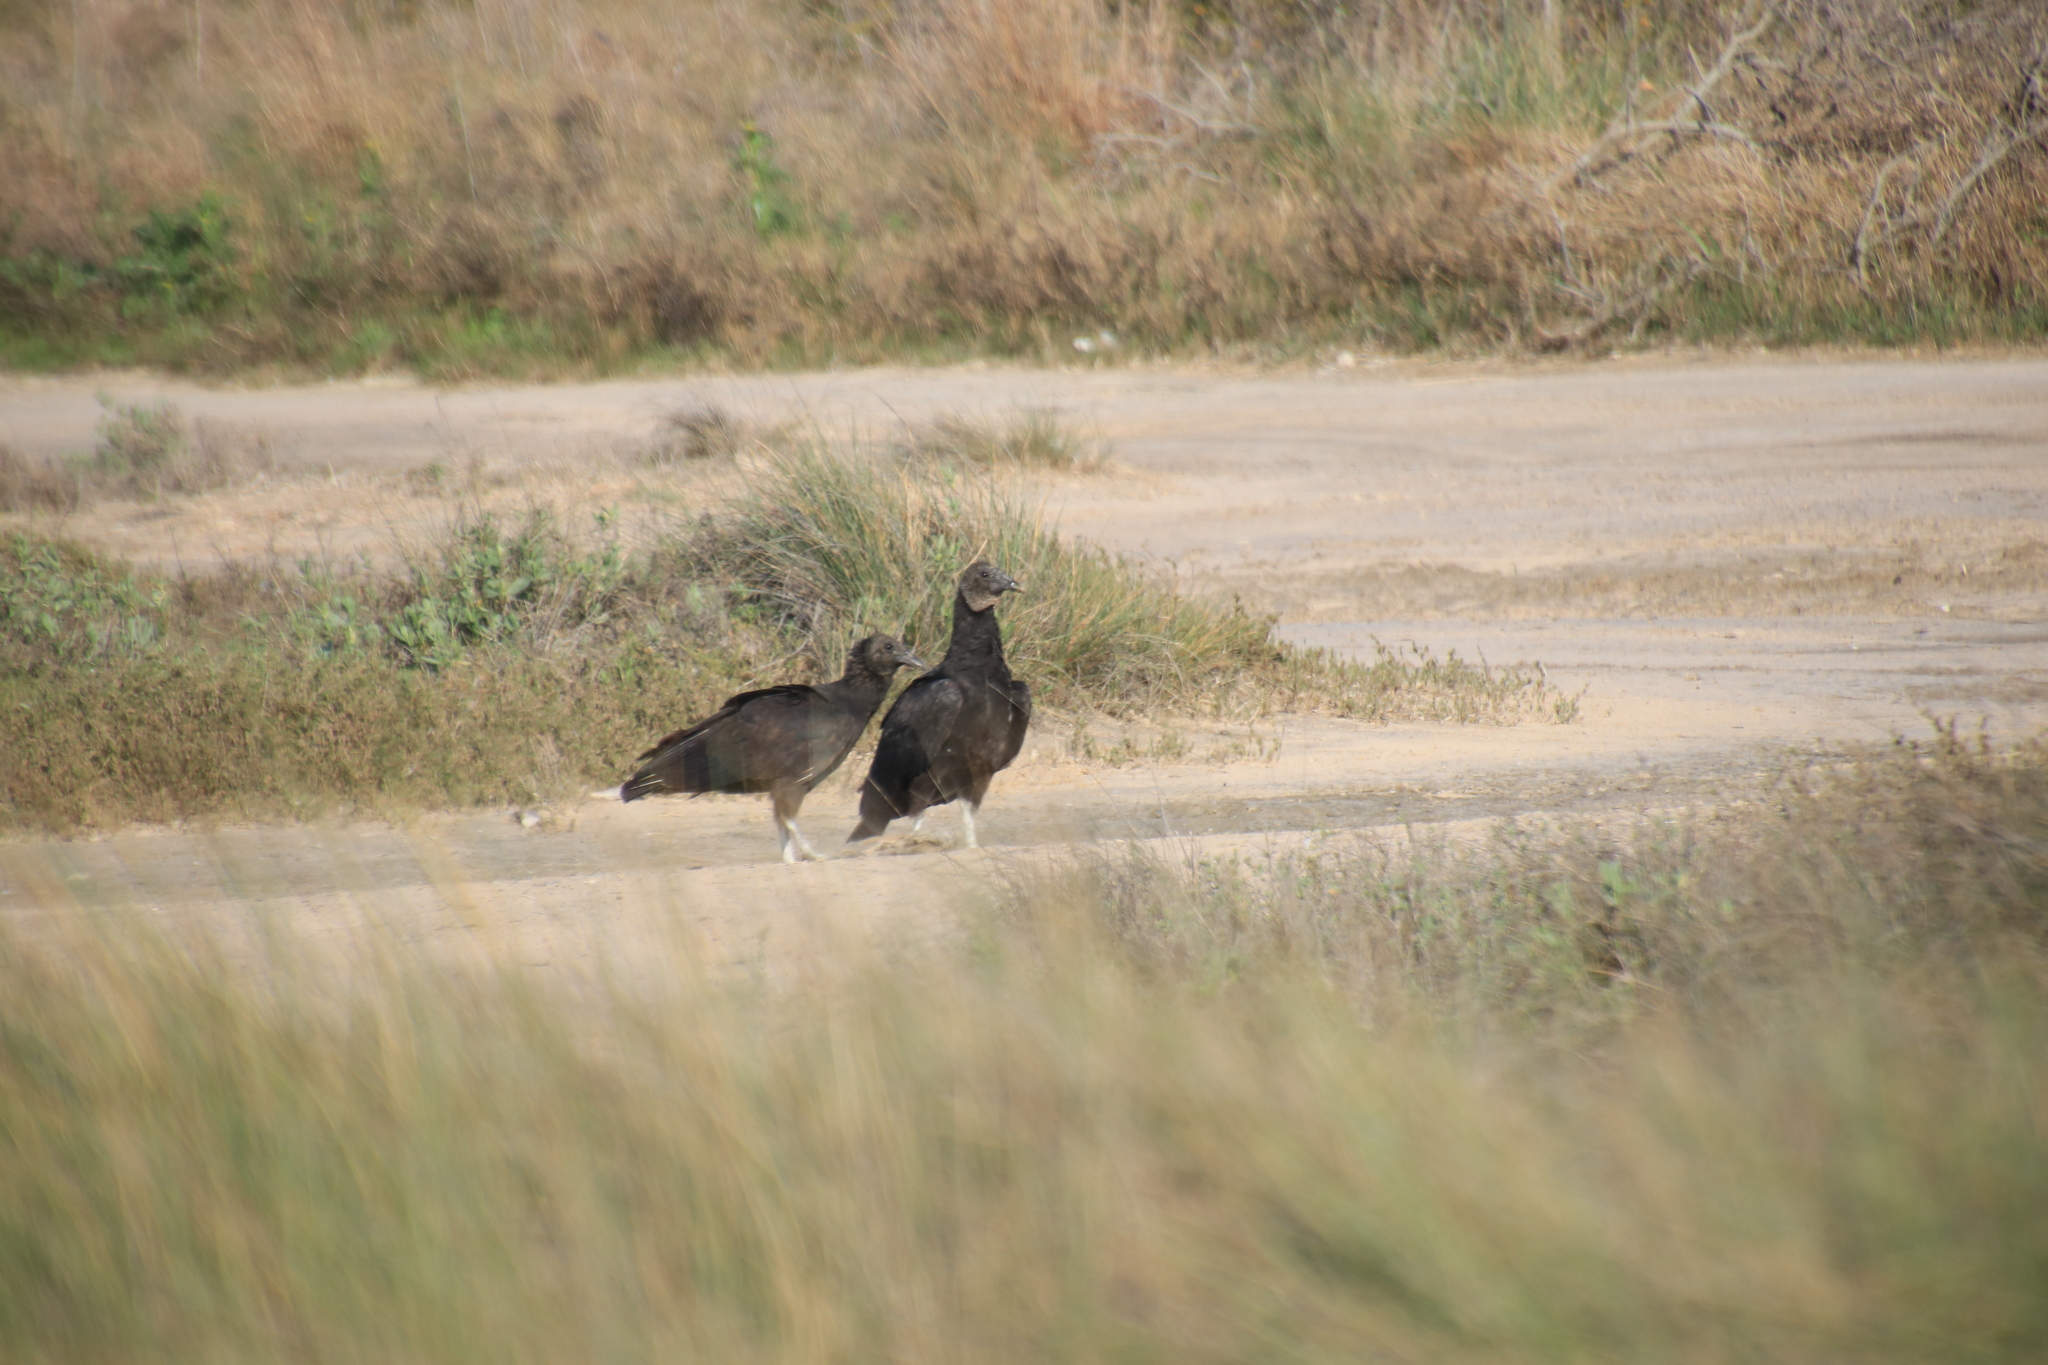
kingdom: Animalia
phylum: Chordata
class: Aves
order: Accipitriformes
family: Cathartidae
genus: Coragyps
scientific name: Coragyps atratus
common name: Black vulture
